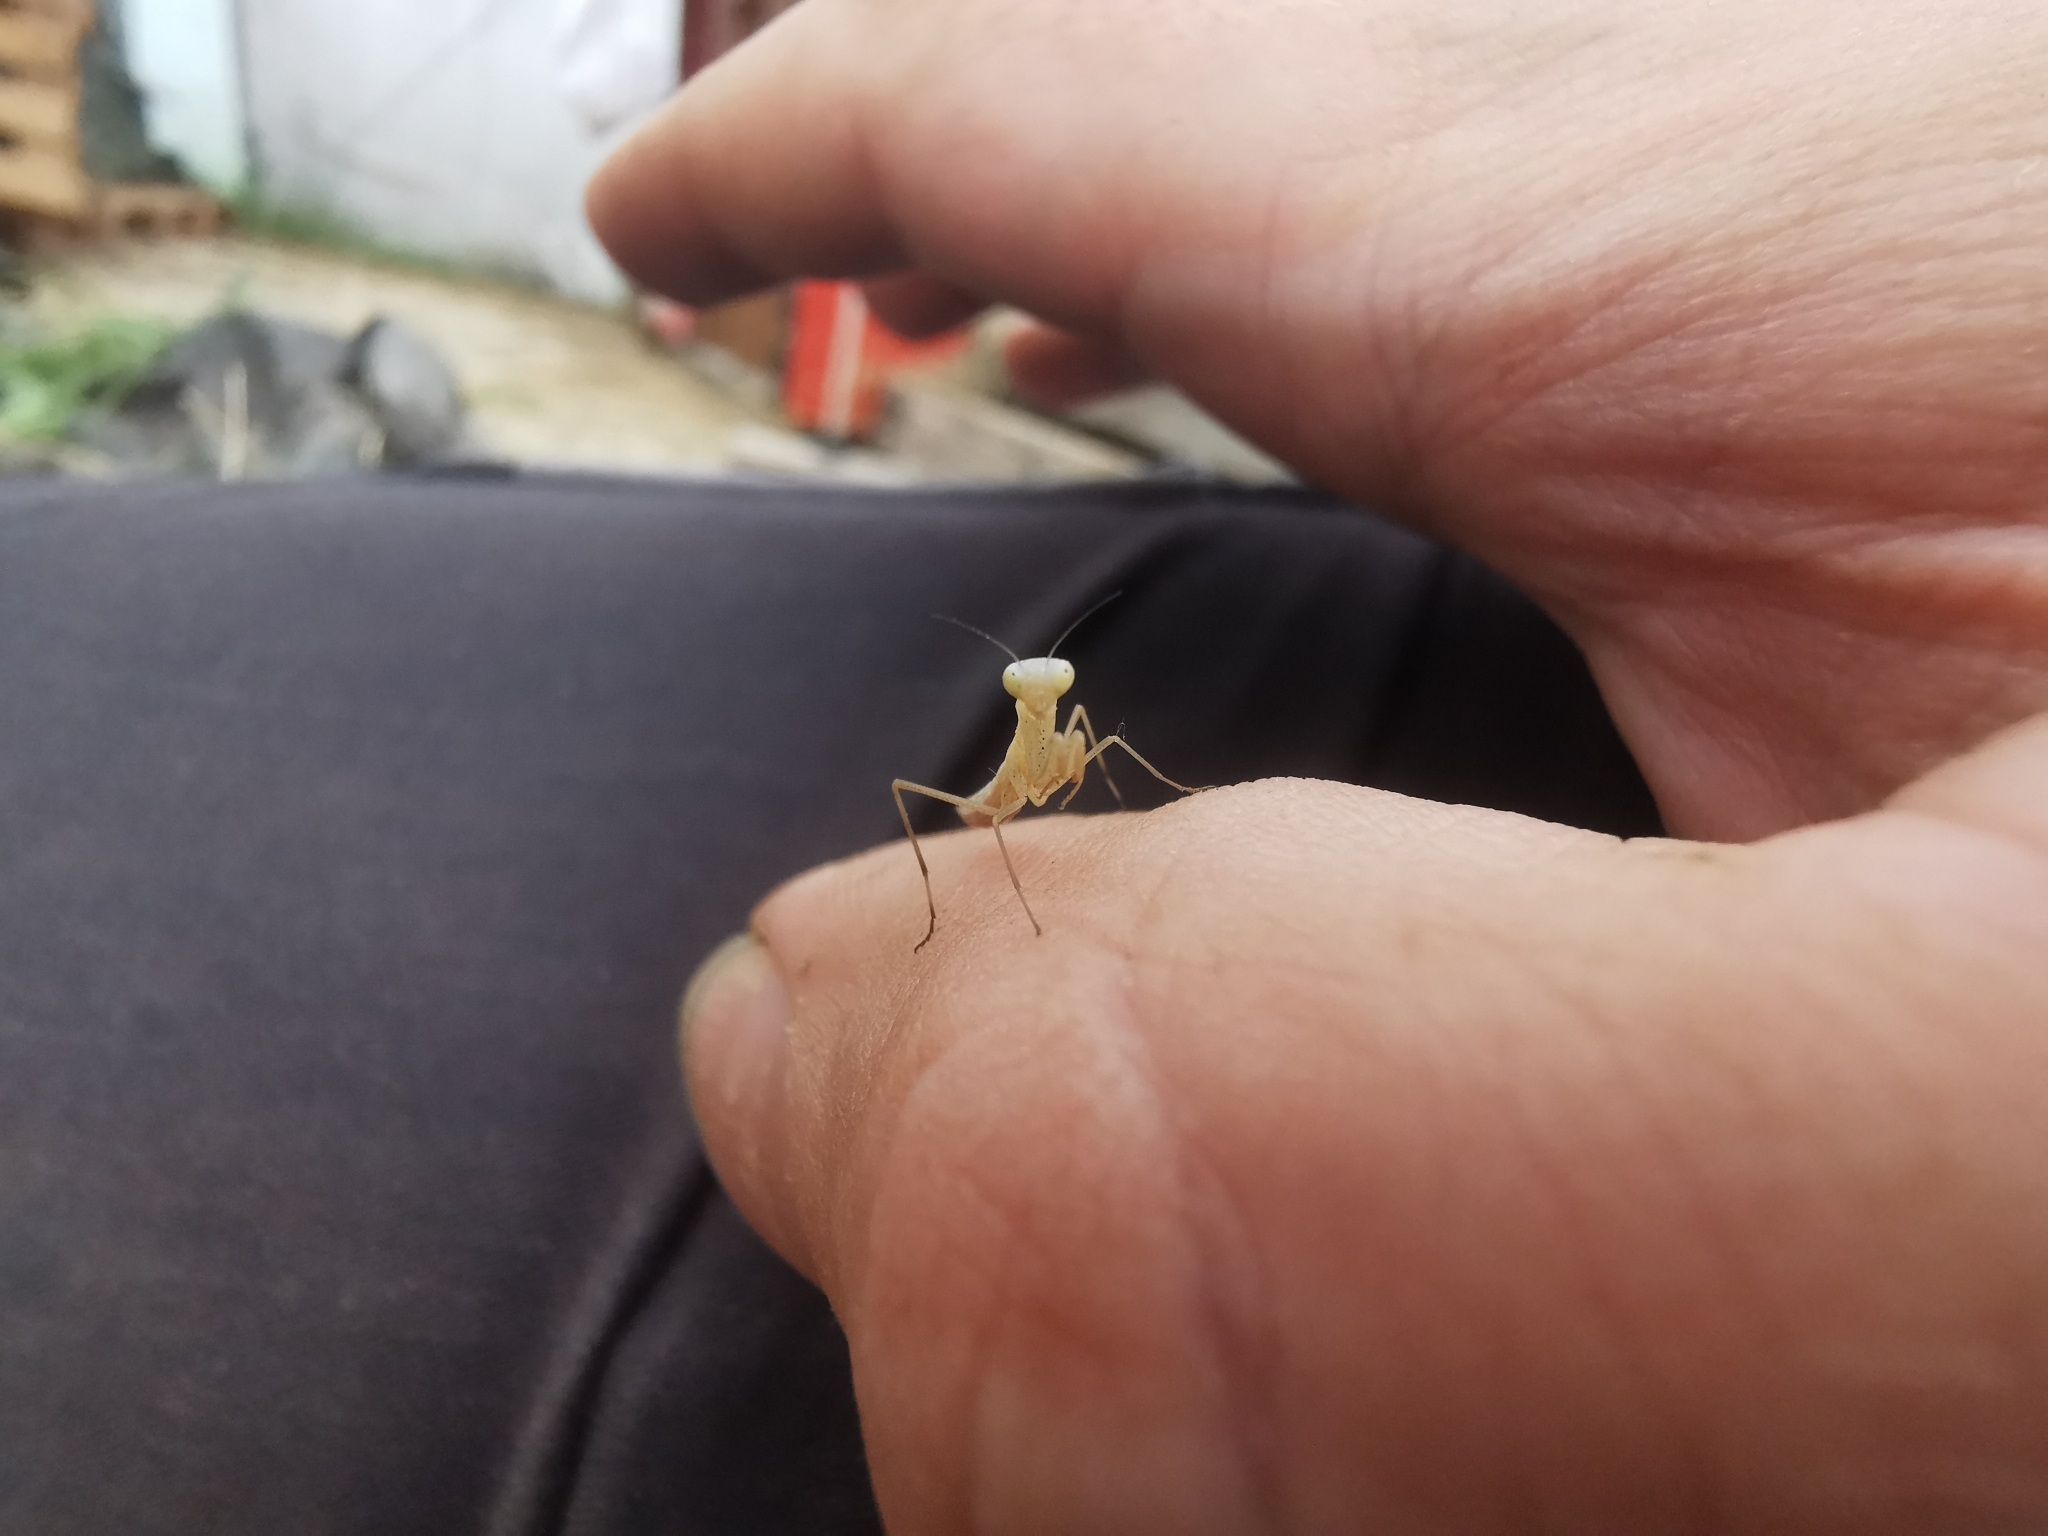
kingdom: Animalia
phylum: Arthropoda
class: Insecta
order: Mantodea
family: Mantidae
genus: Mantis
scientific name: Mantis religiosa
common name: Praying mantis
